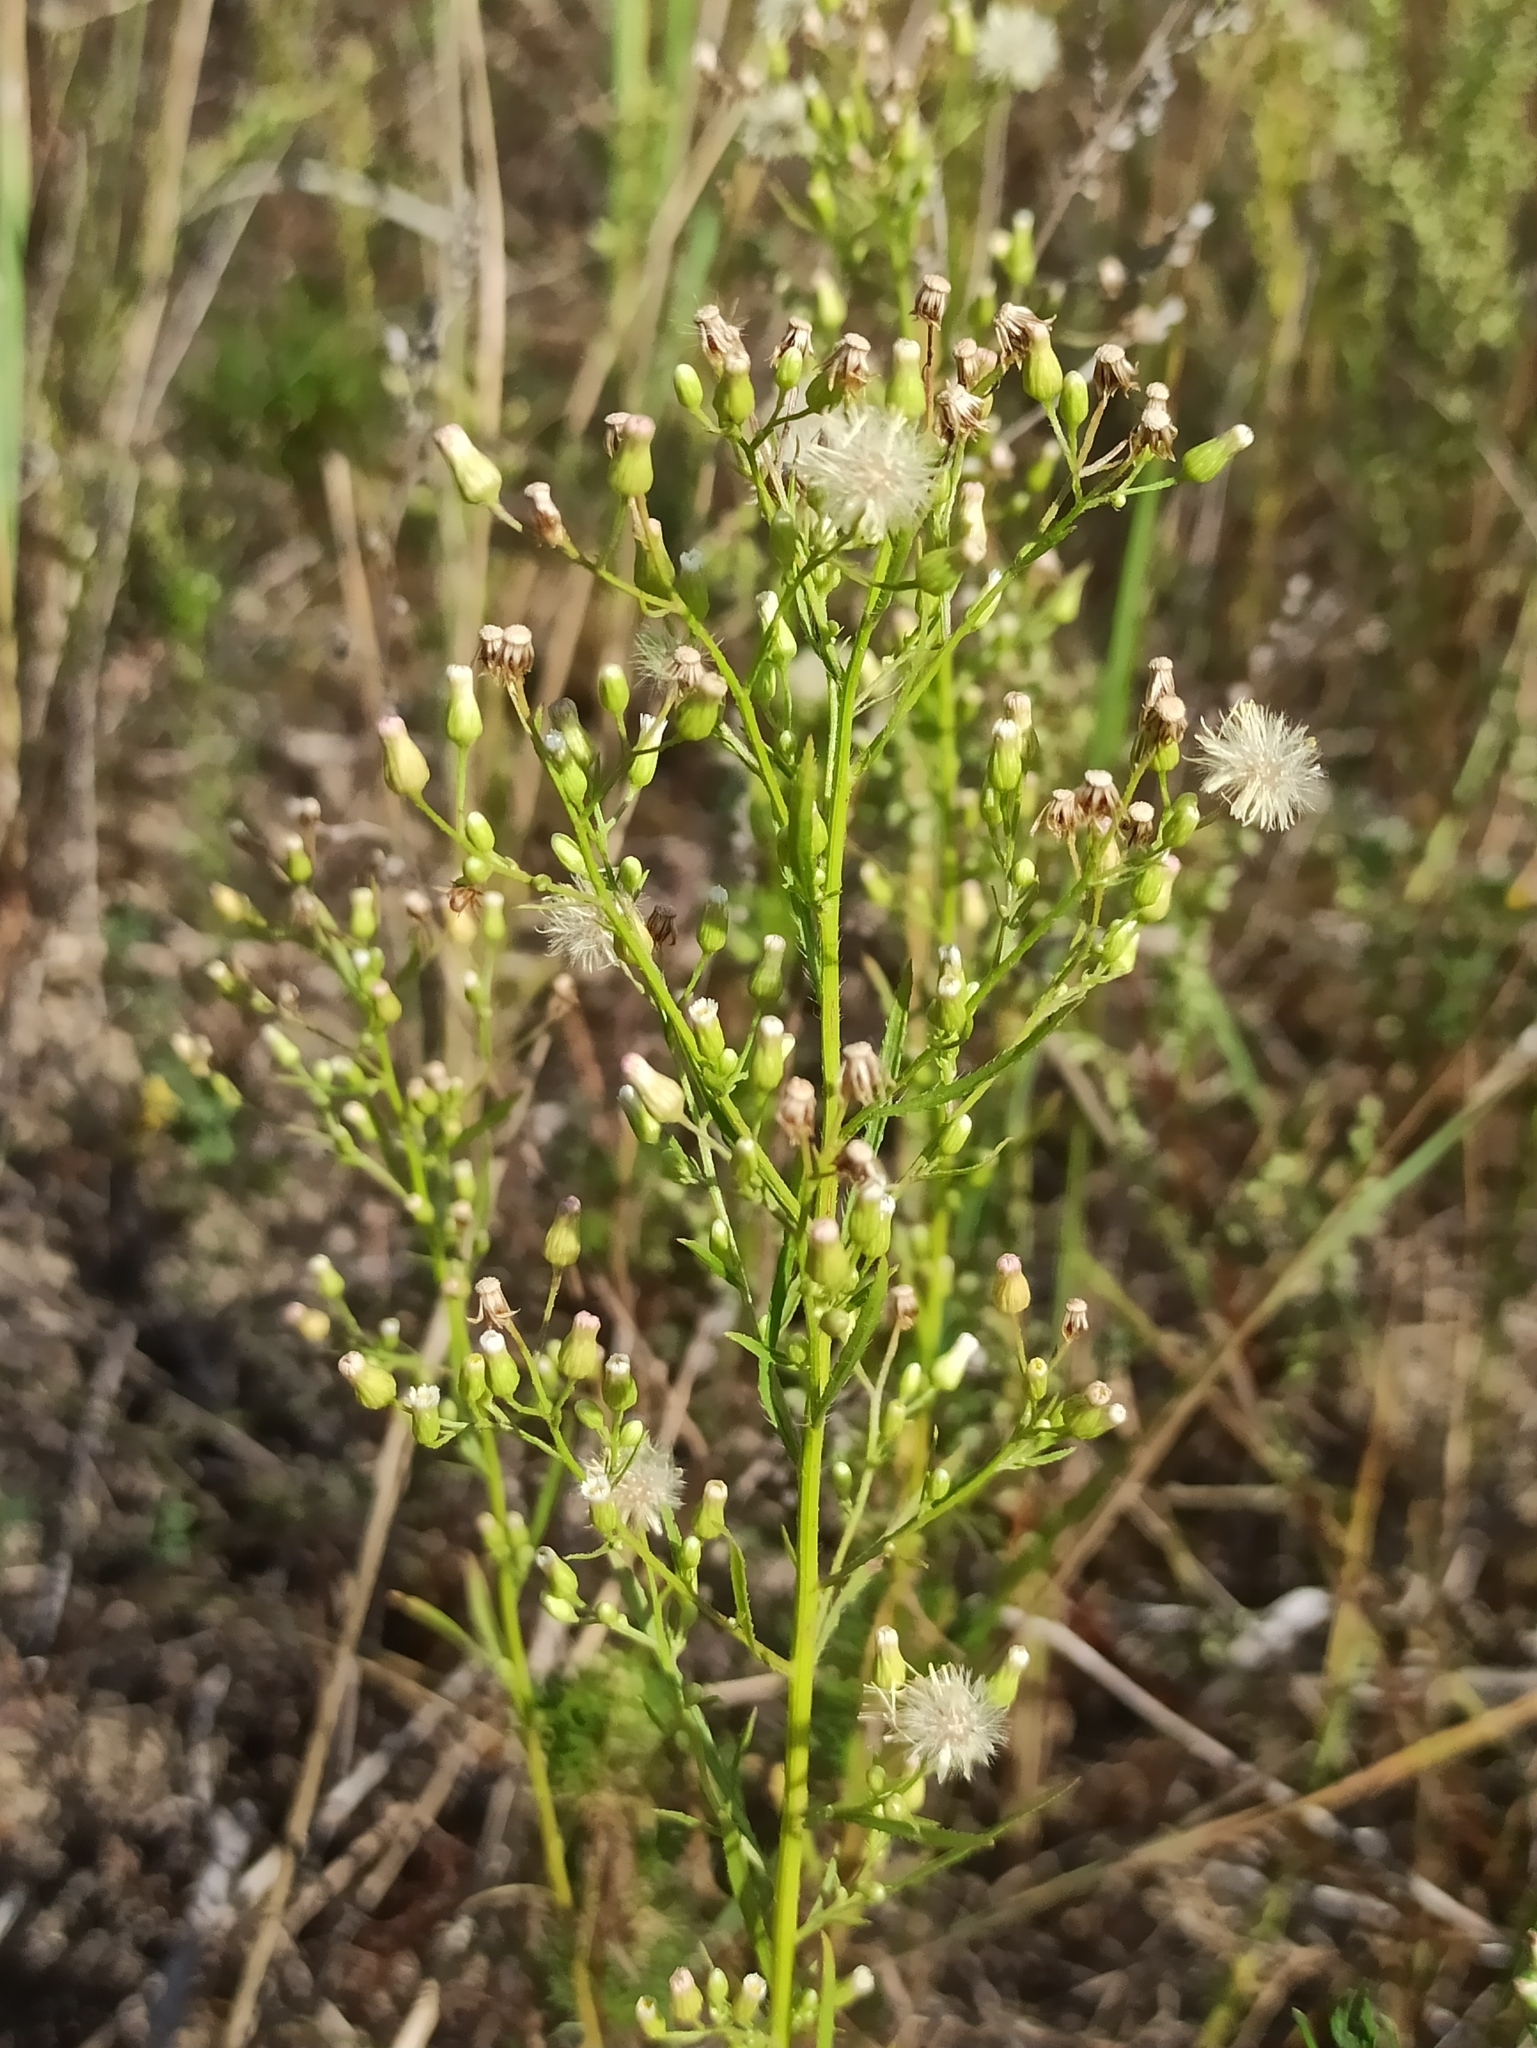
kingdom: Plantae
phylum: Tracheophyta
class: Magnoliopsida
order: Asterales
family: Asteraceae
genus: Erigeron
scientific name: Erigeron canadensis
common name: Canadian fleabane
